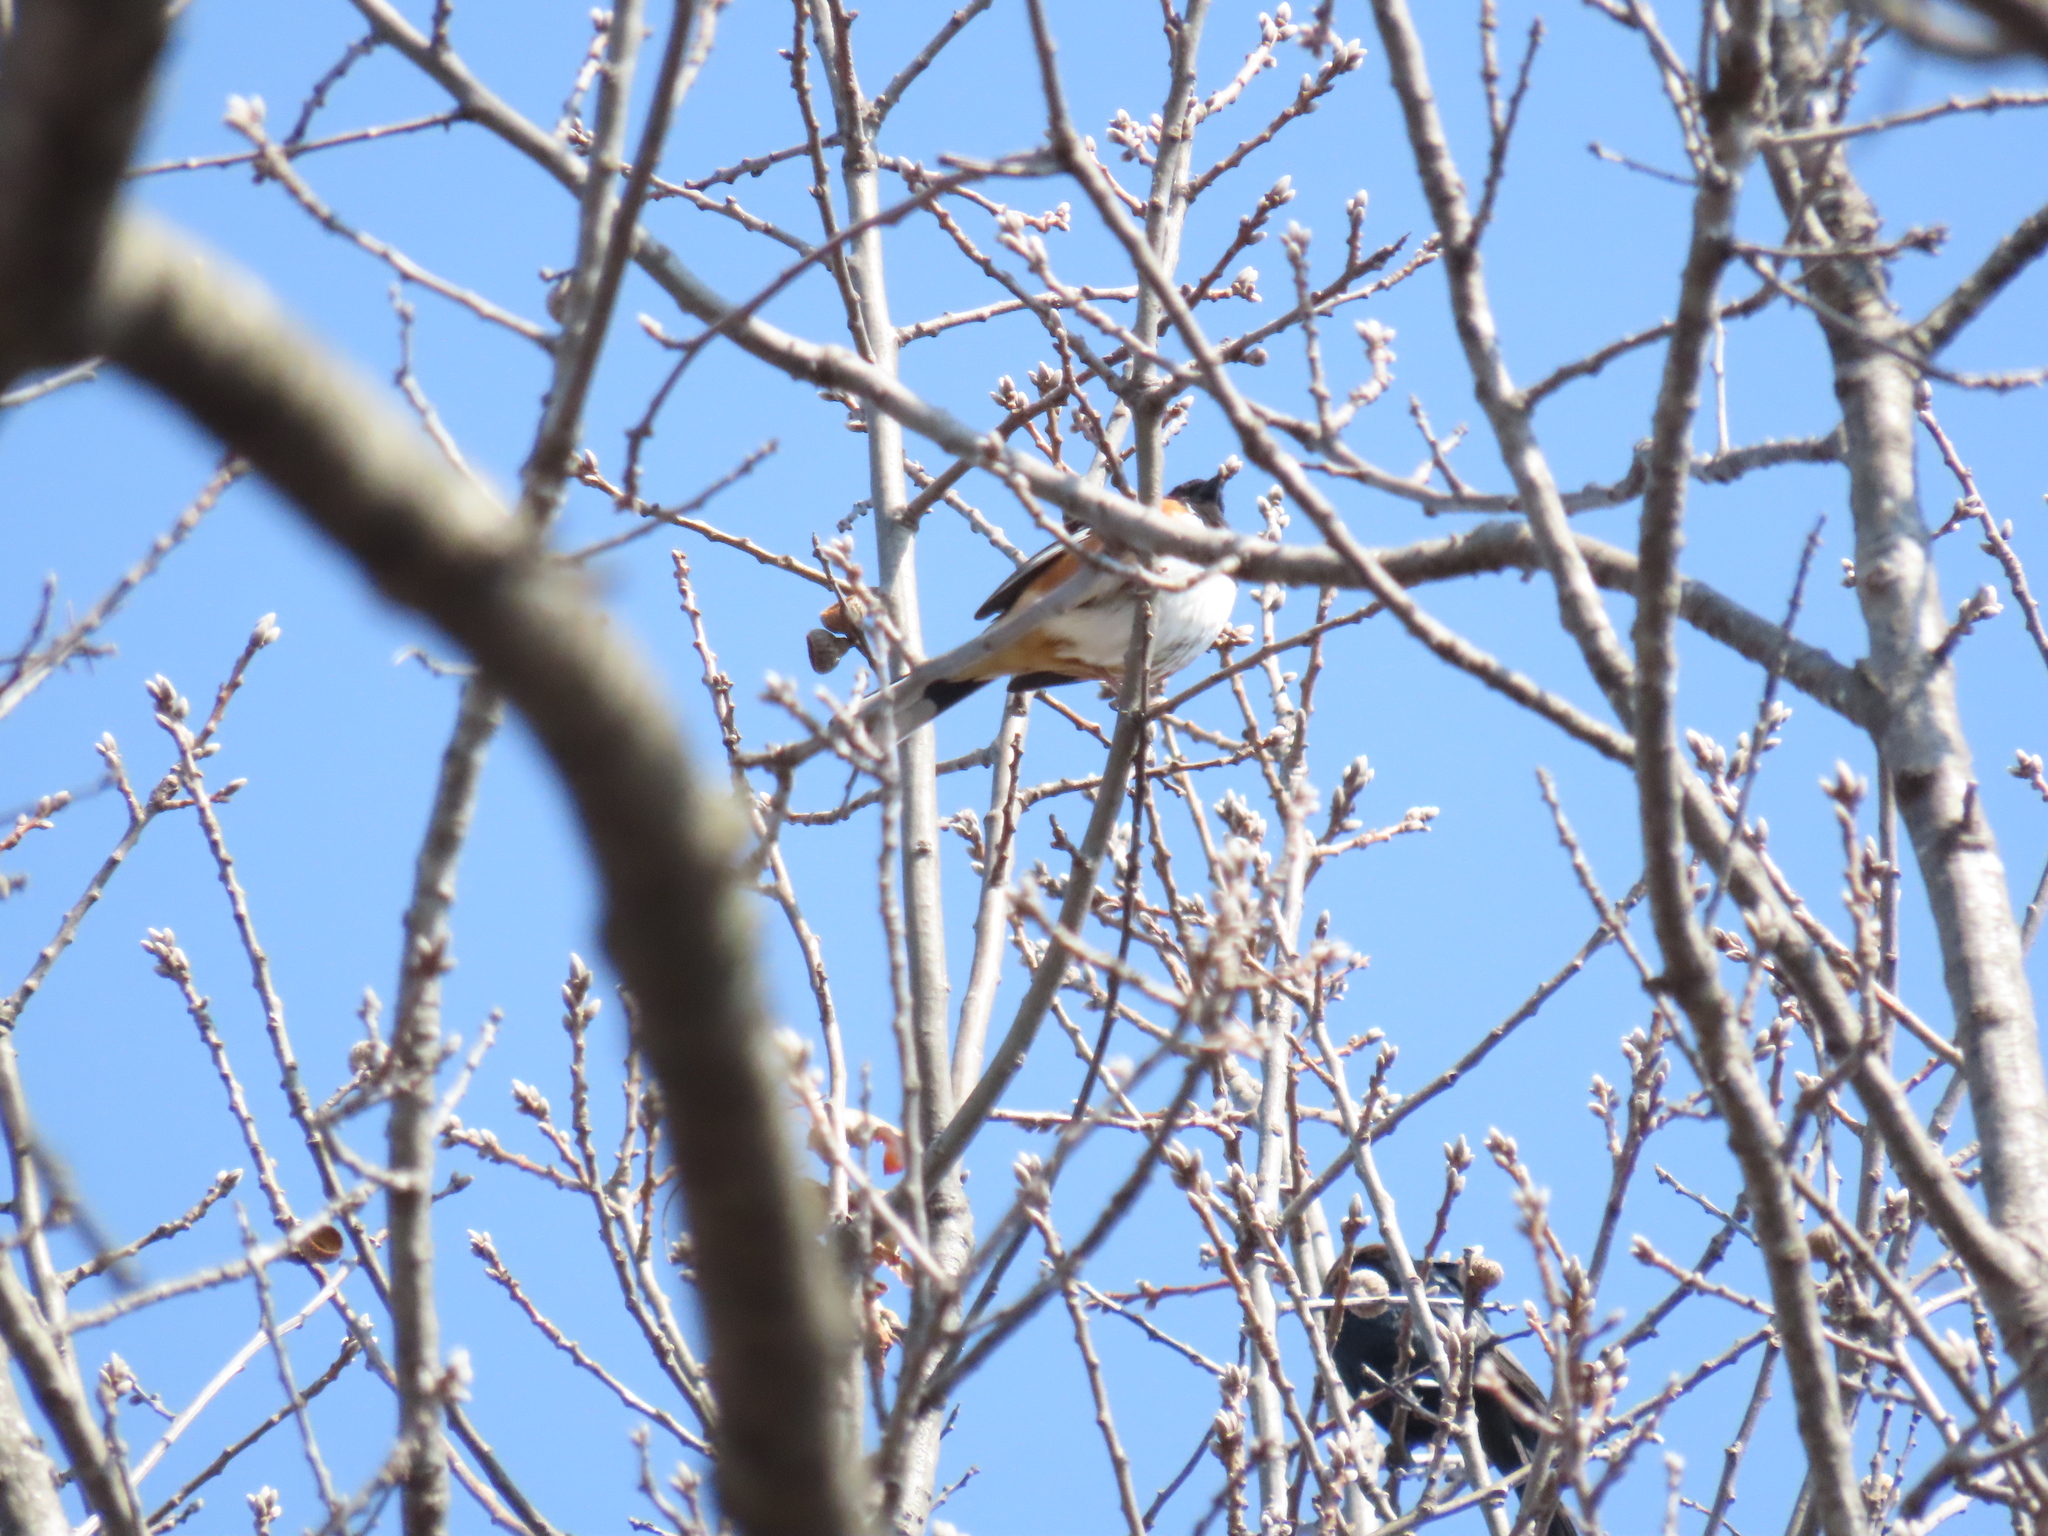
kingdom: Animalia
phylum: Chordata
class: Aves
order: Passeriformes
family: Passerellidae
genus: Pipilo
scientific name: Pipilo erythrophthalmus
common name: Eastern towhee
